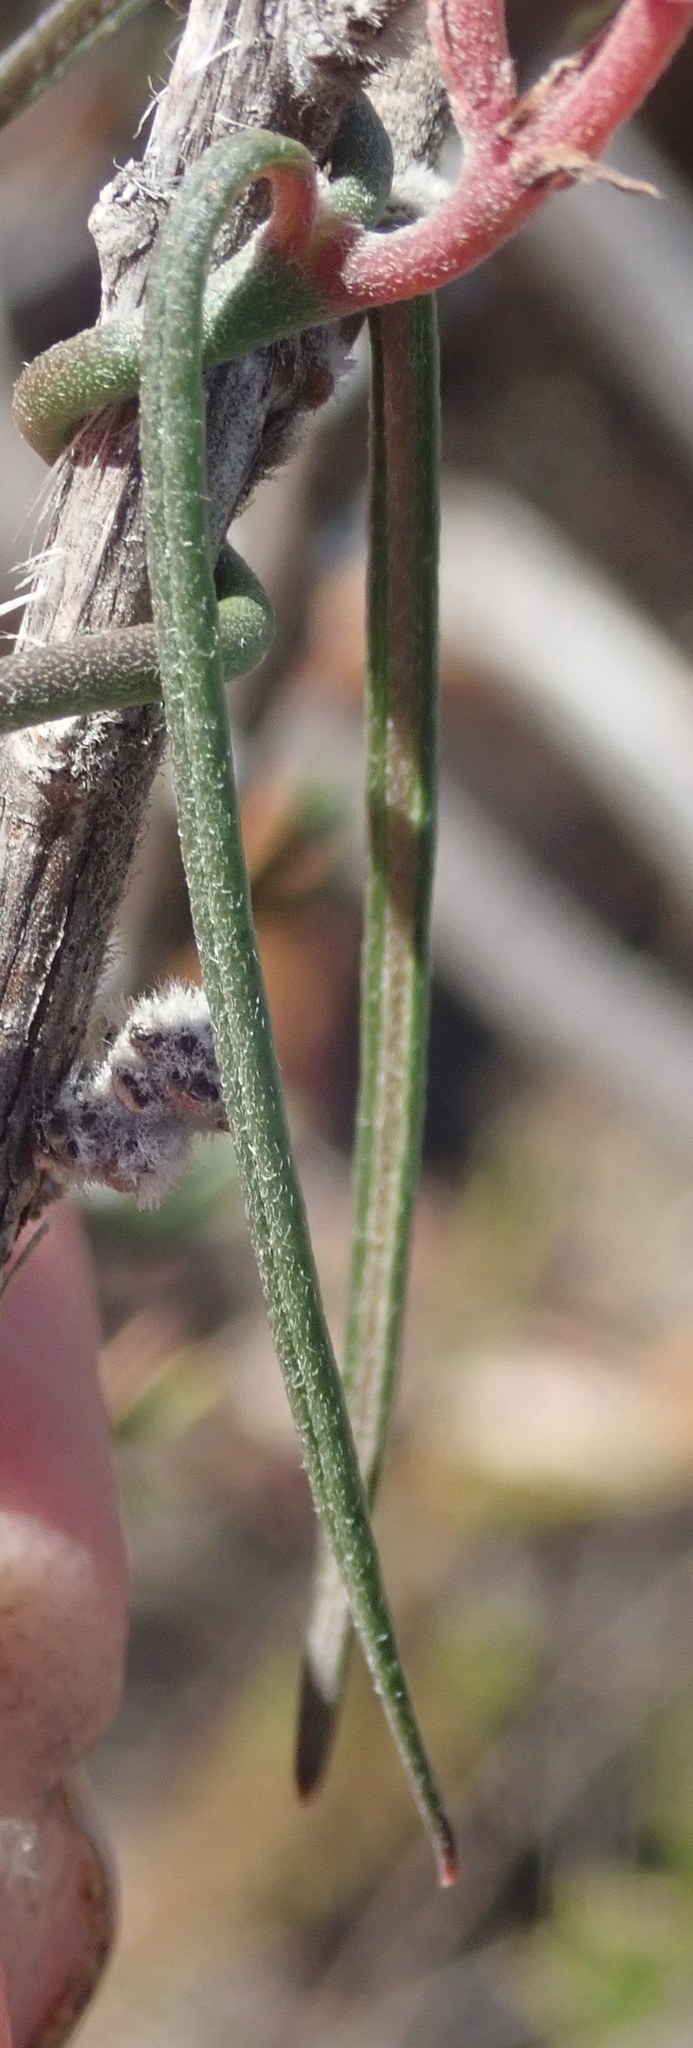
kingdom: Plantae
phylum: Tracheophyta
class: Magnoliopsida
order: Gentianales
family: Apocynaceae
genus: Microloma
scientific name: Microloma tenuifolium
